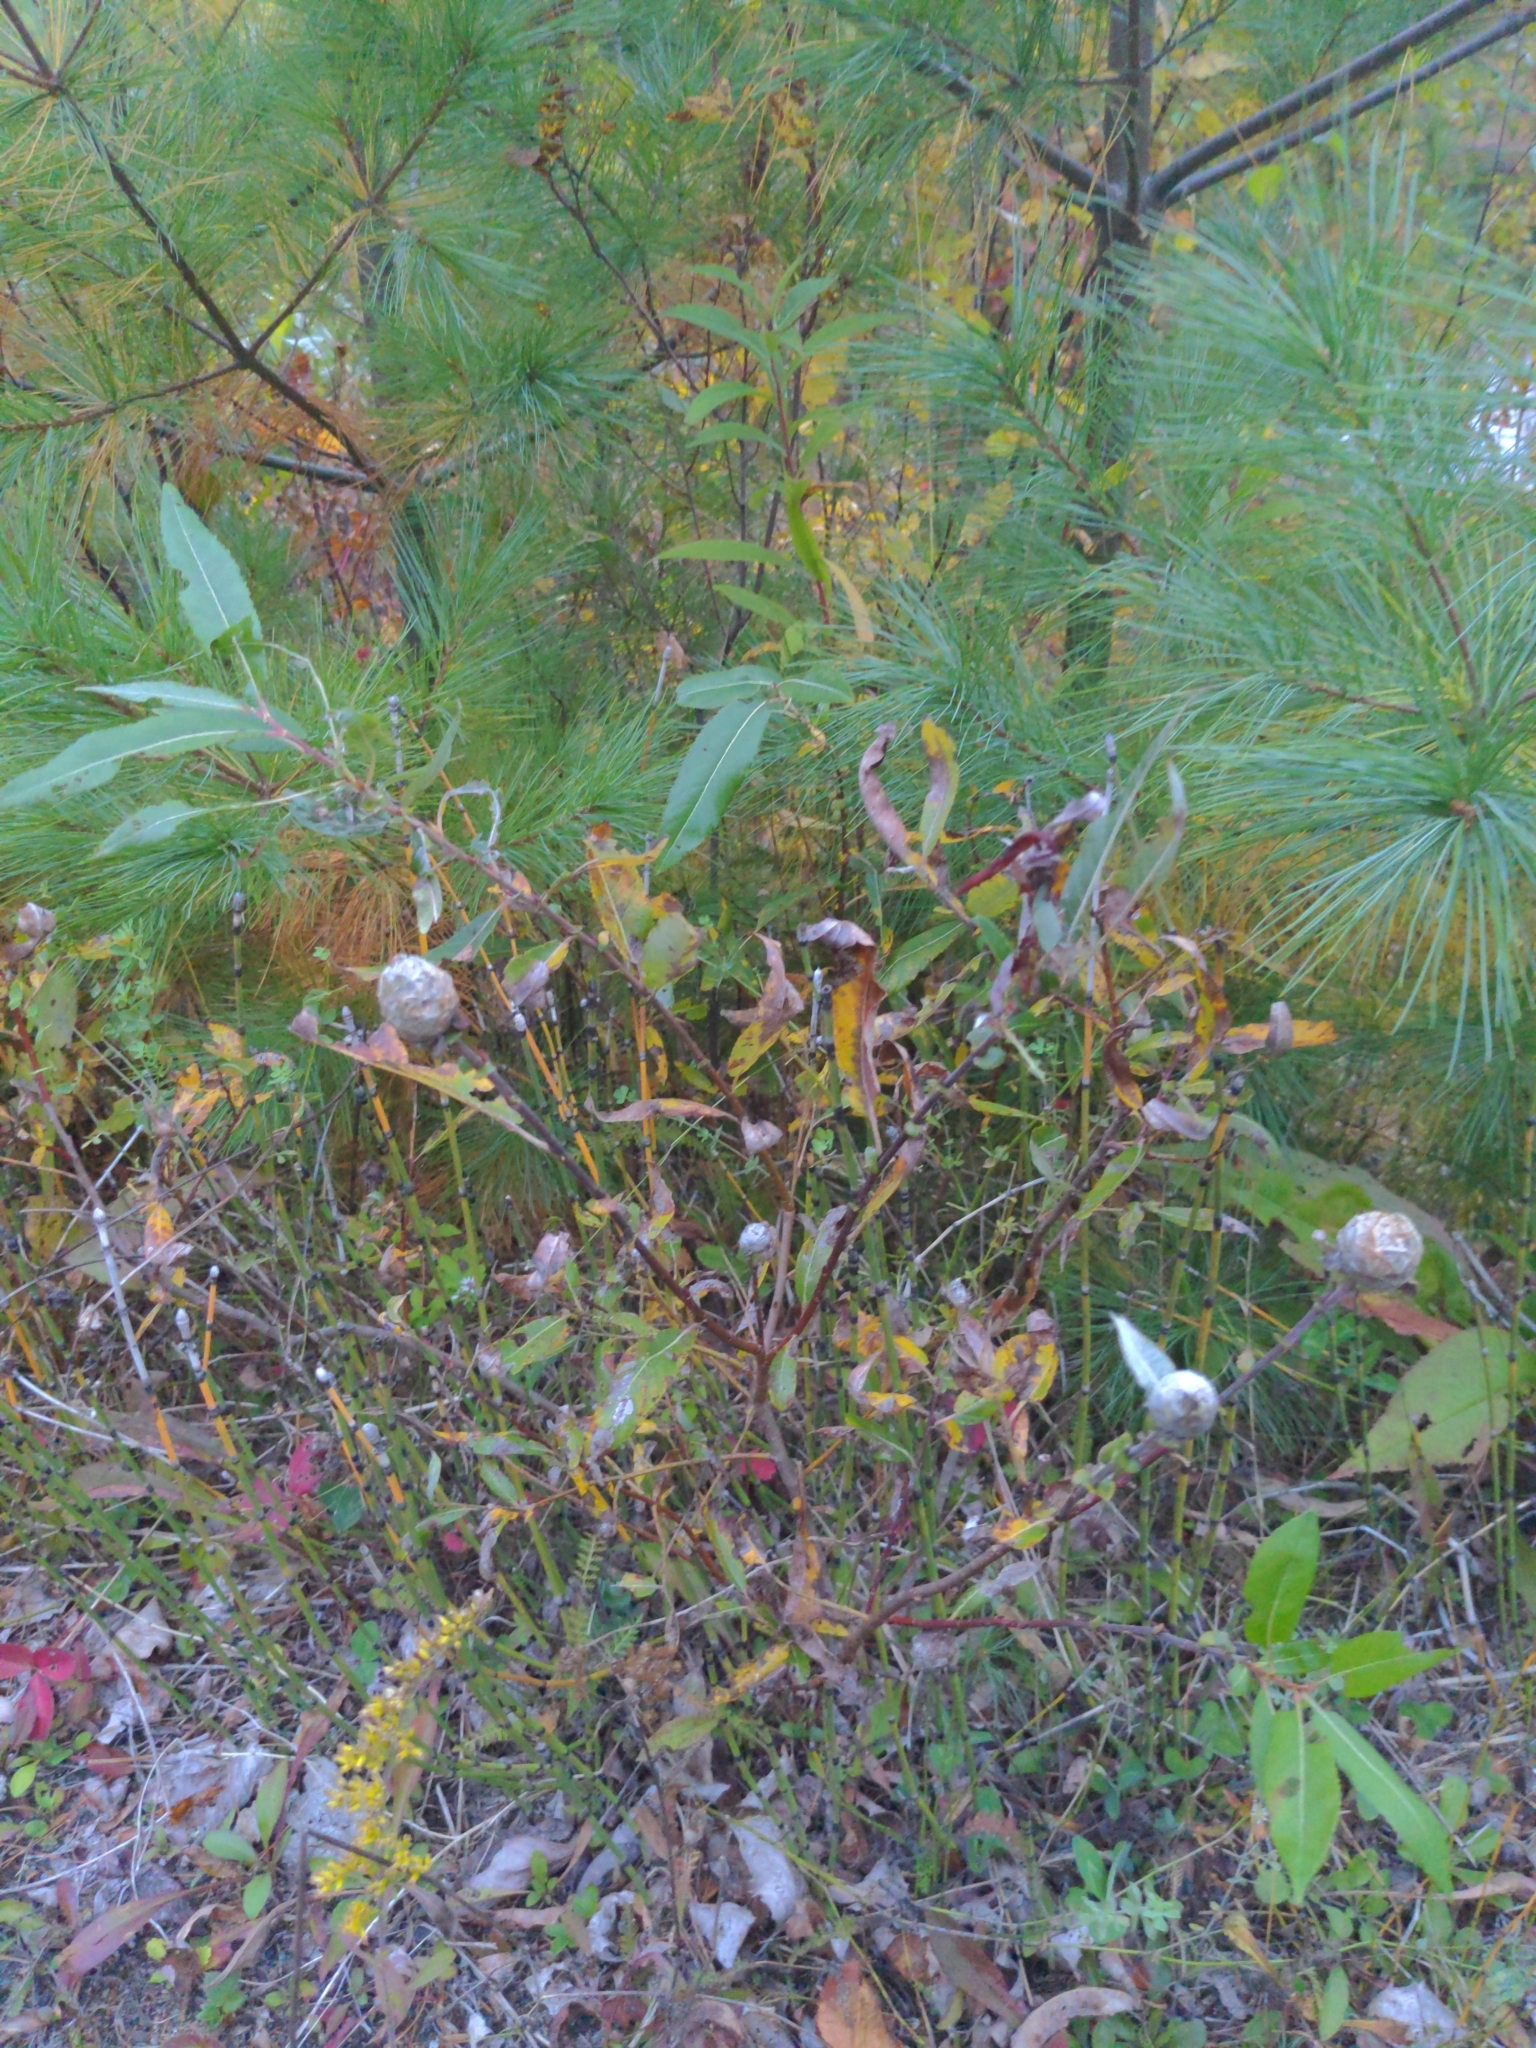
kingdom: Animalia
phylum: Arthropoda
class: Insecta
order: Diptera
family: Cecidomyiidae
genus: Rabdophaga
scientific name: Rabdophaga strobiloides
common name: Willow pinecone gall midge
